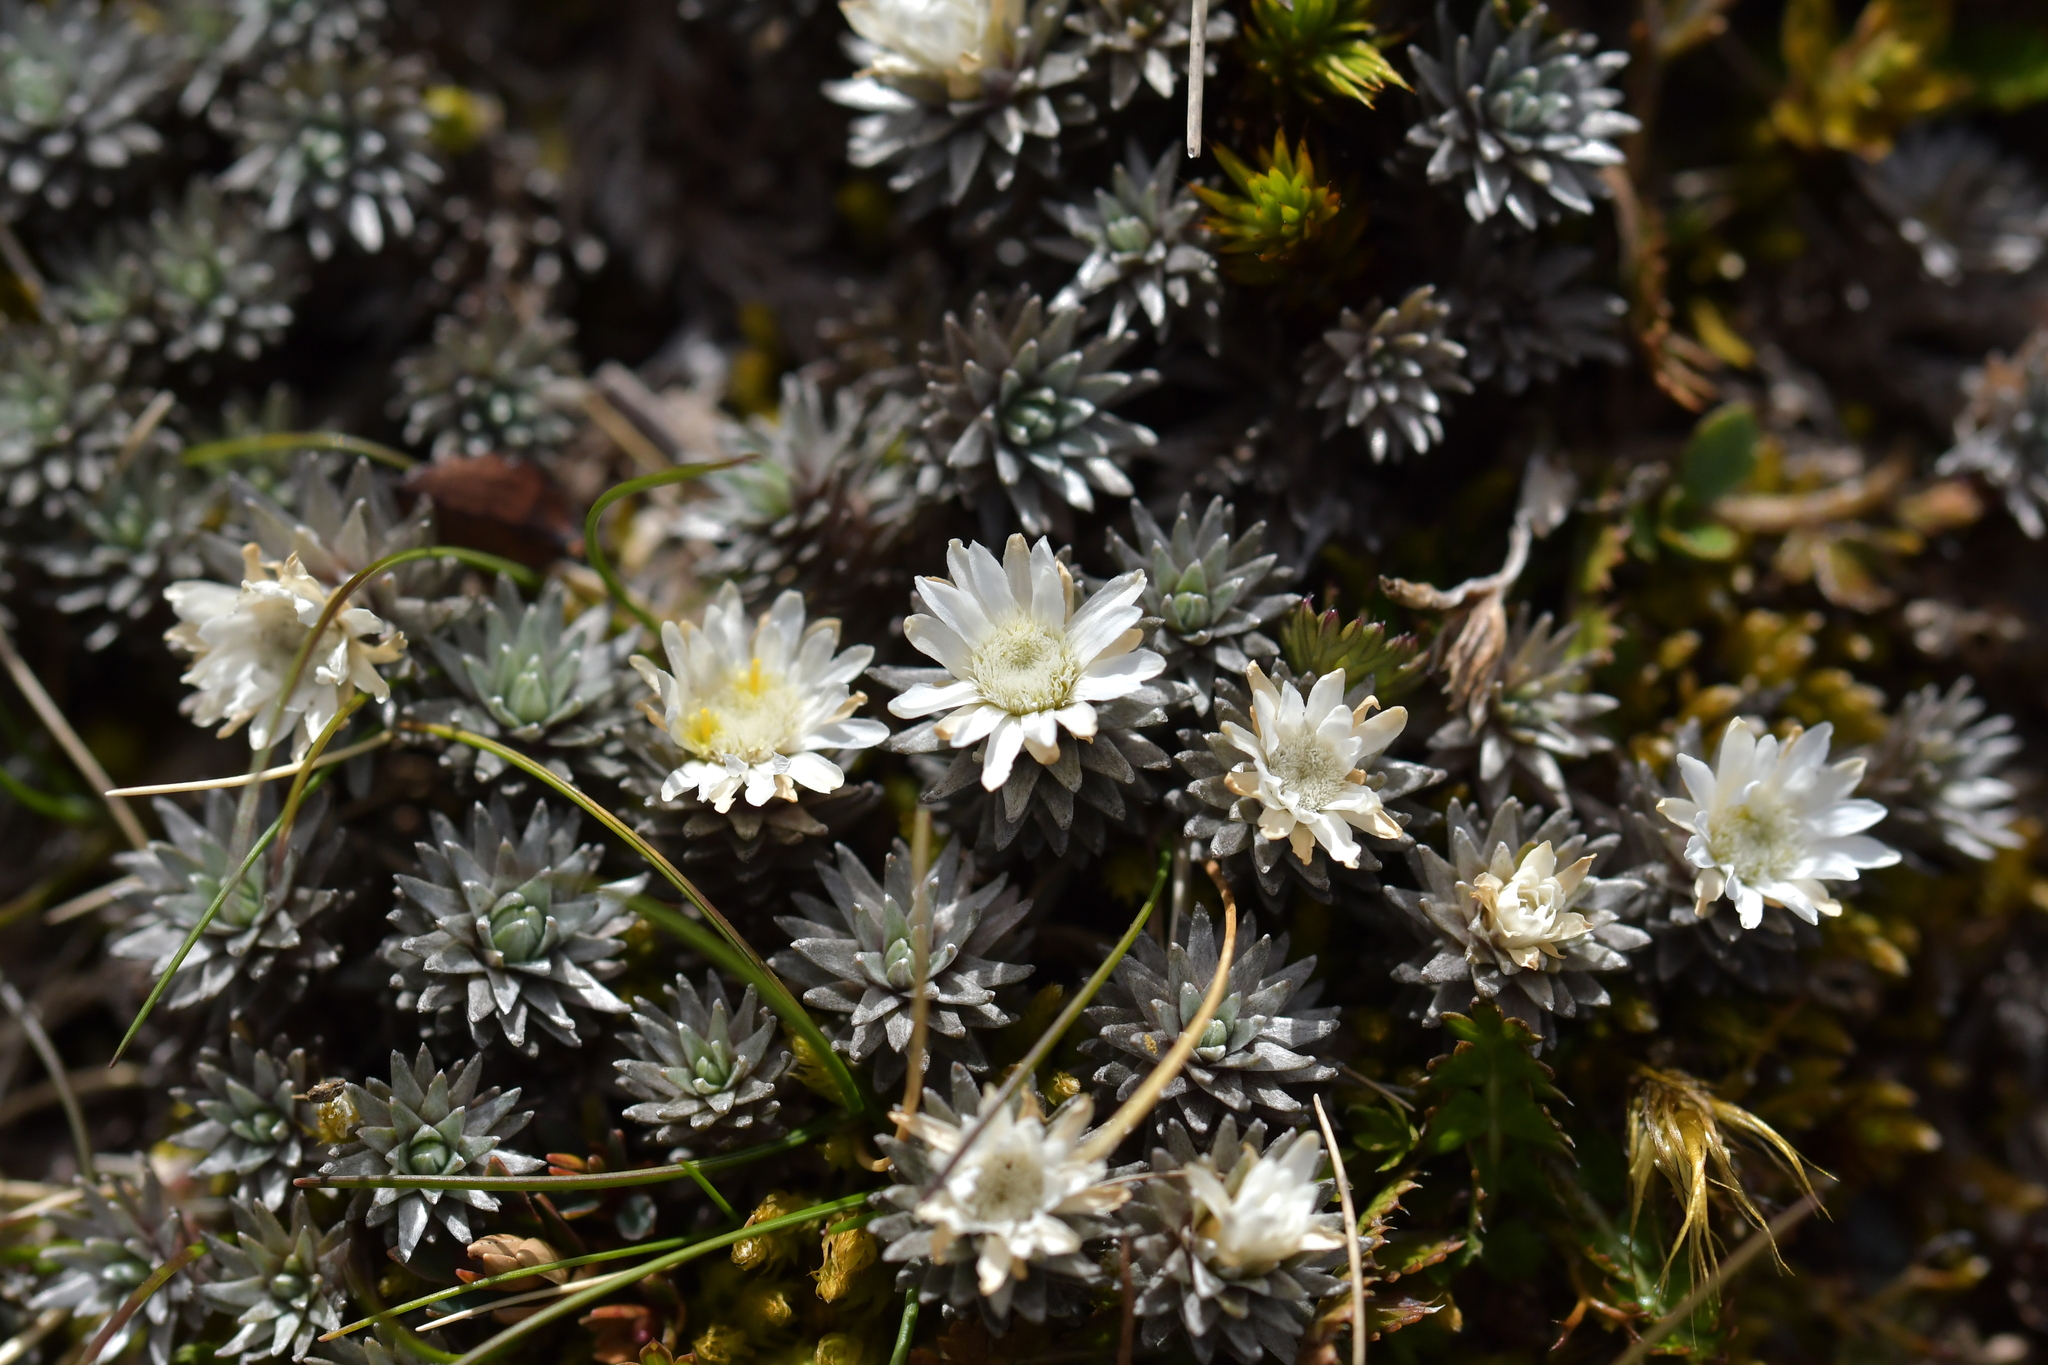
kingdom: Plantae
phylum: Tracheophyta
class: Magnoliopsida
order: Asterales
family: Asteraceae
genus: Raoulia
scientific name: Raoulia grandiflora
